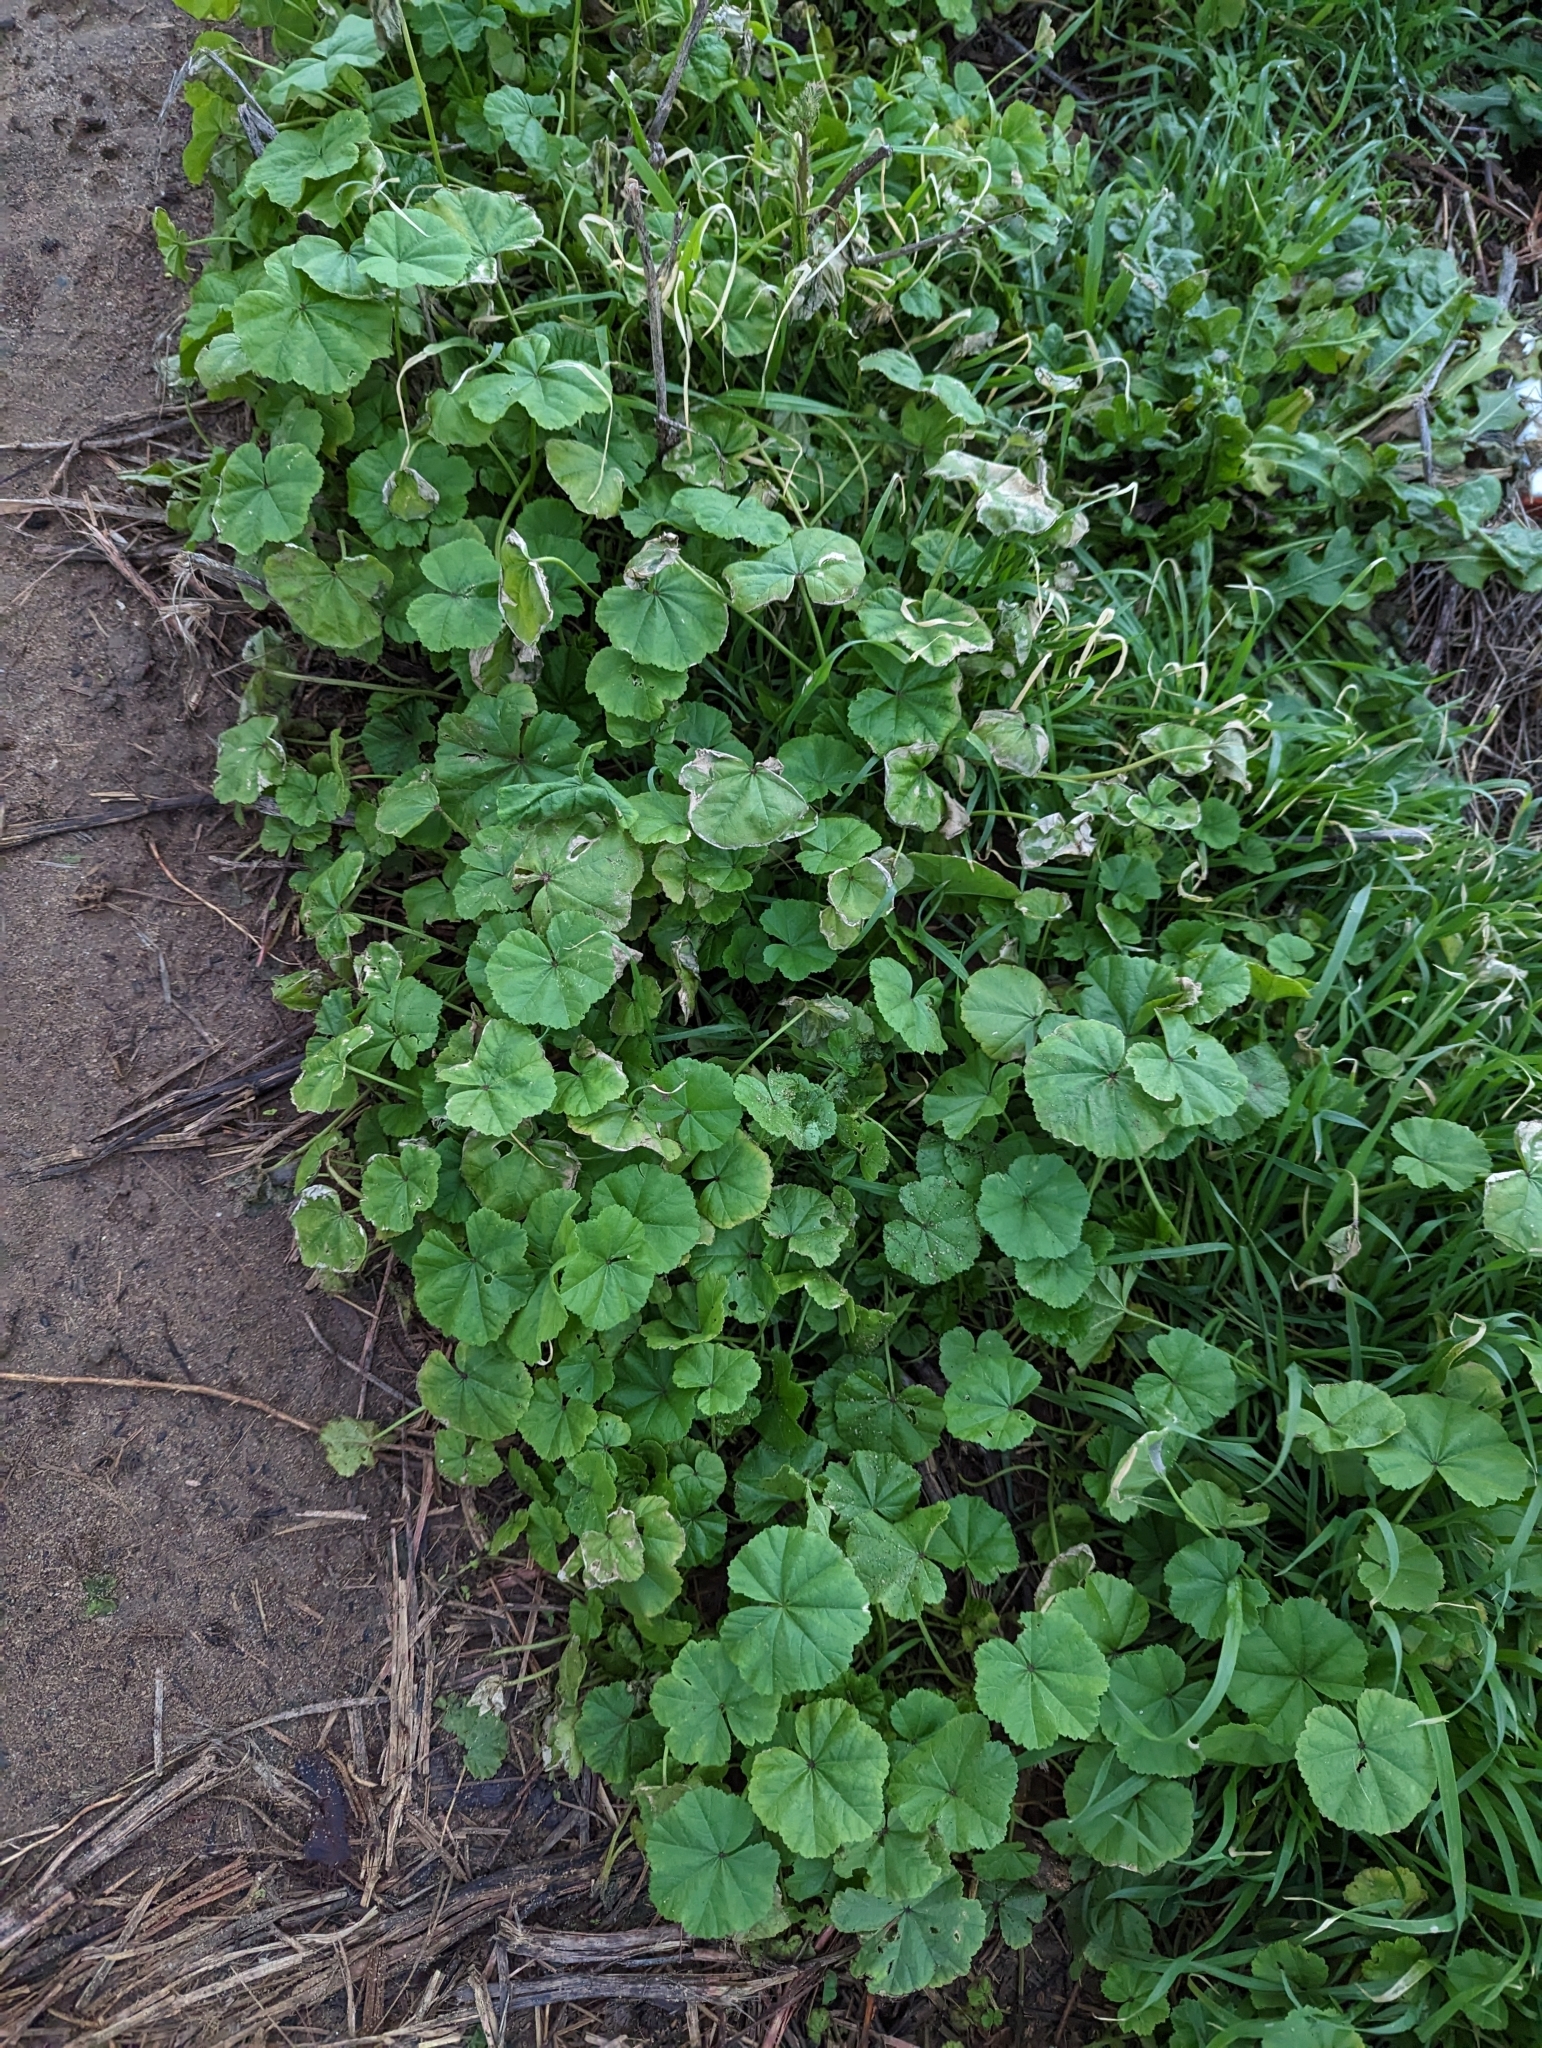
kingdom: Plantae
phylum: Tracheophyta
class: Magnoliopsida
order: Malvales
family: Malvaceae
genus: Malva
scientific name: Malva
